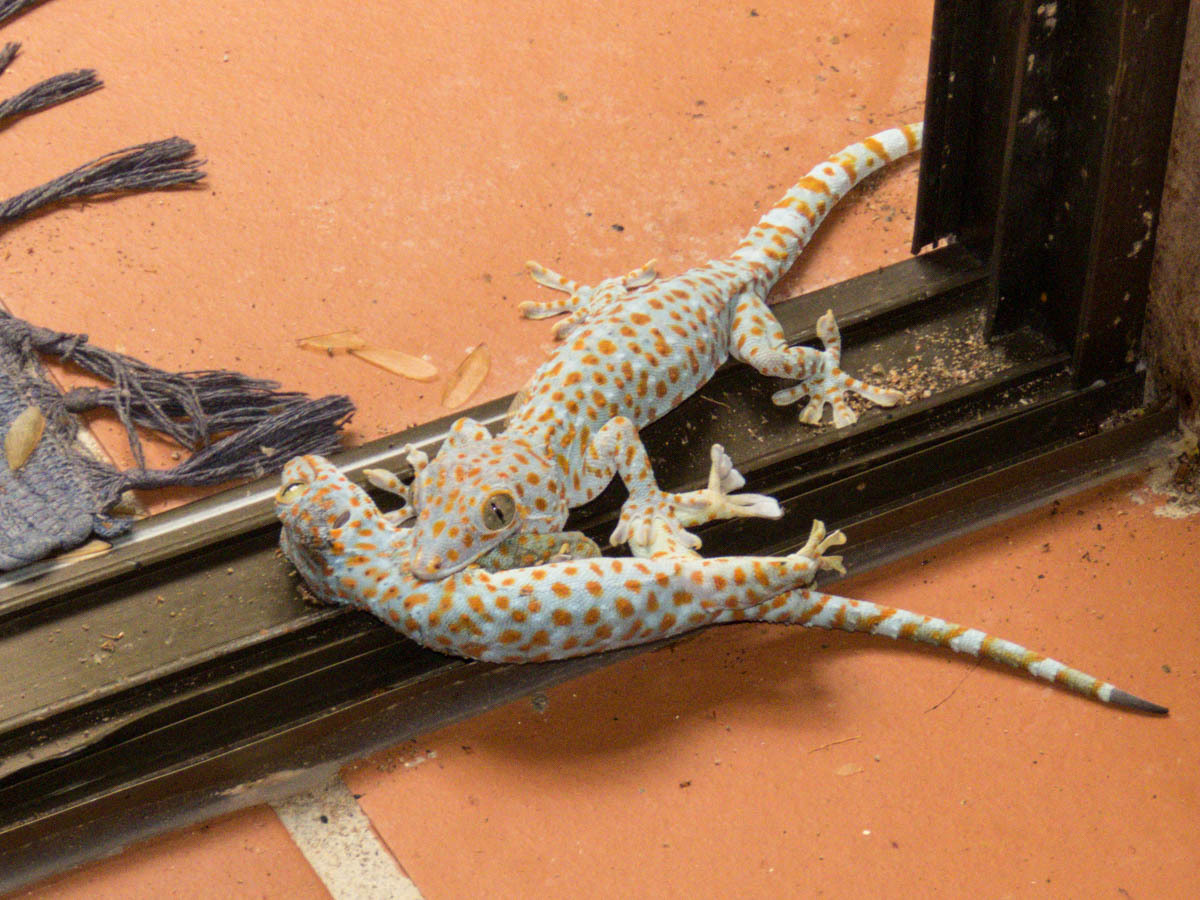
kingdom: Animalia
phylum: Chordata
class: Squamata
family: Gekkonidae
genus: Gekko
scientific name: Gekko gecko
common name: Tokay gecko
